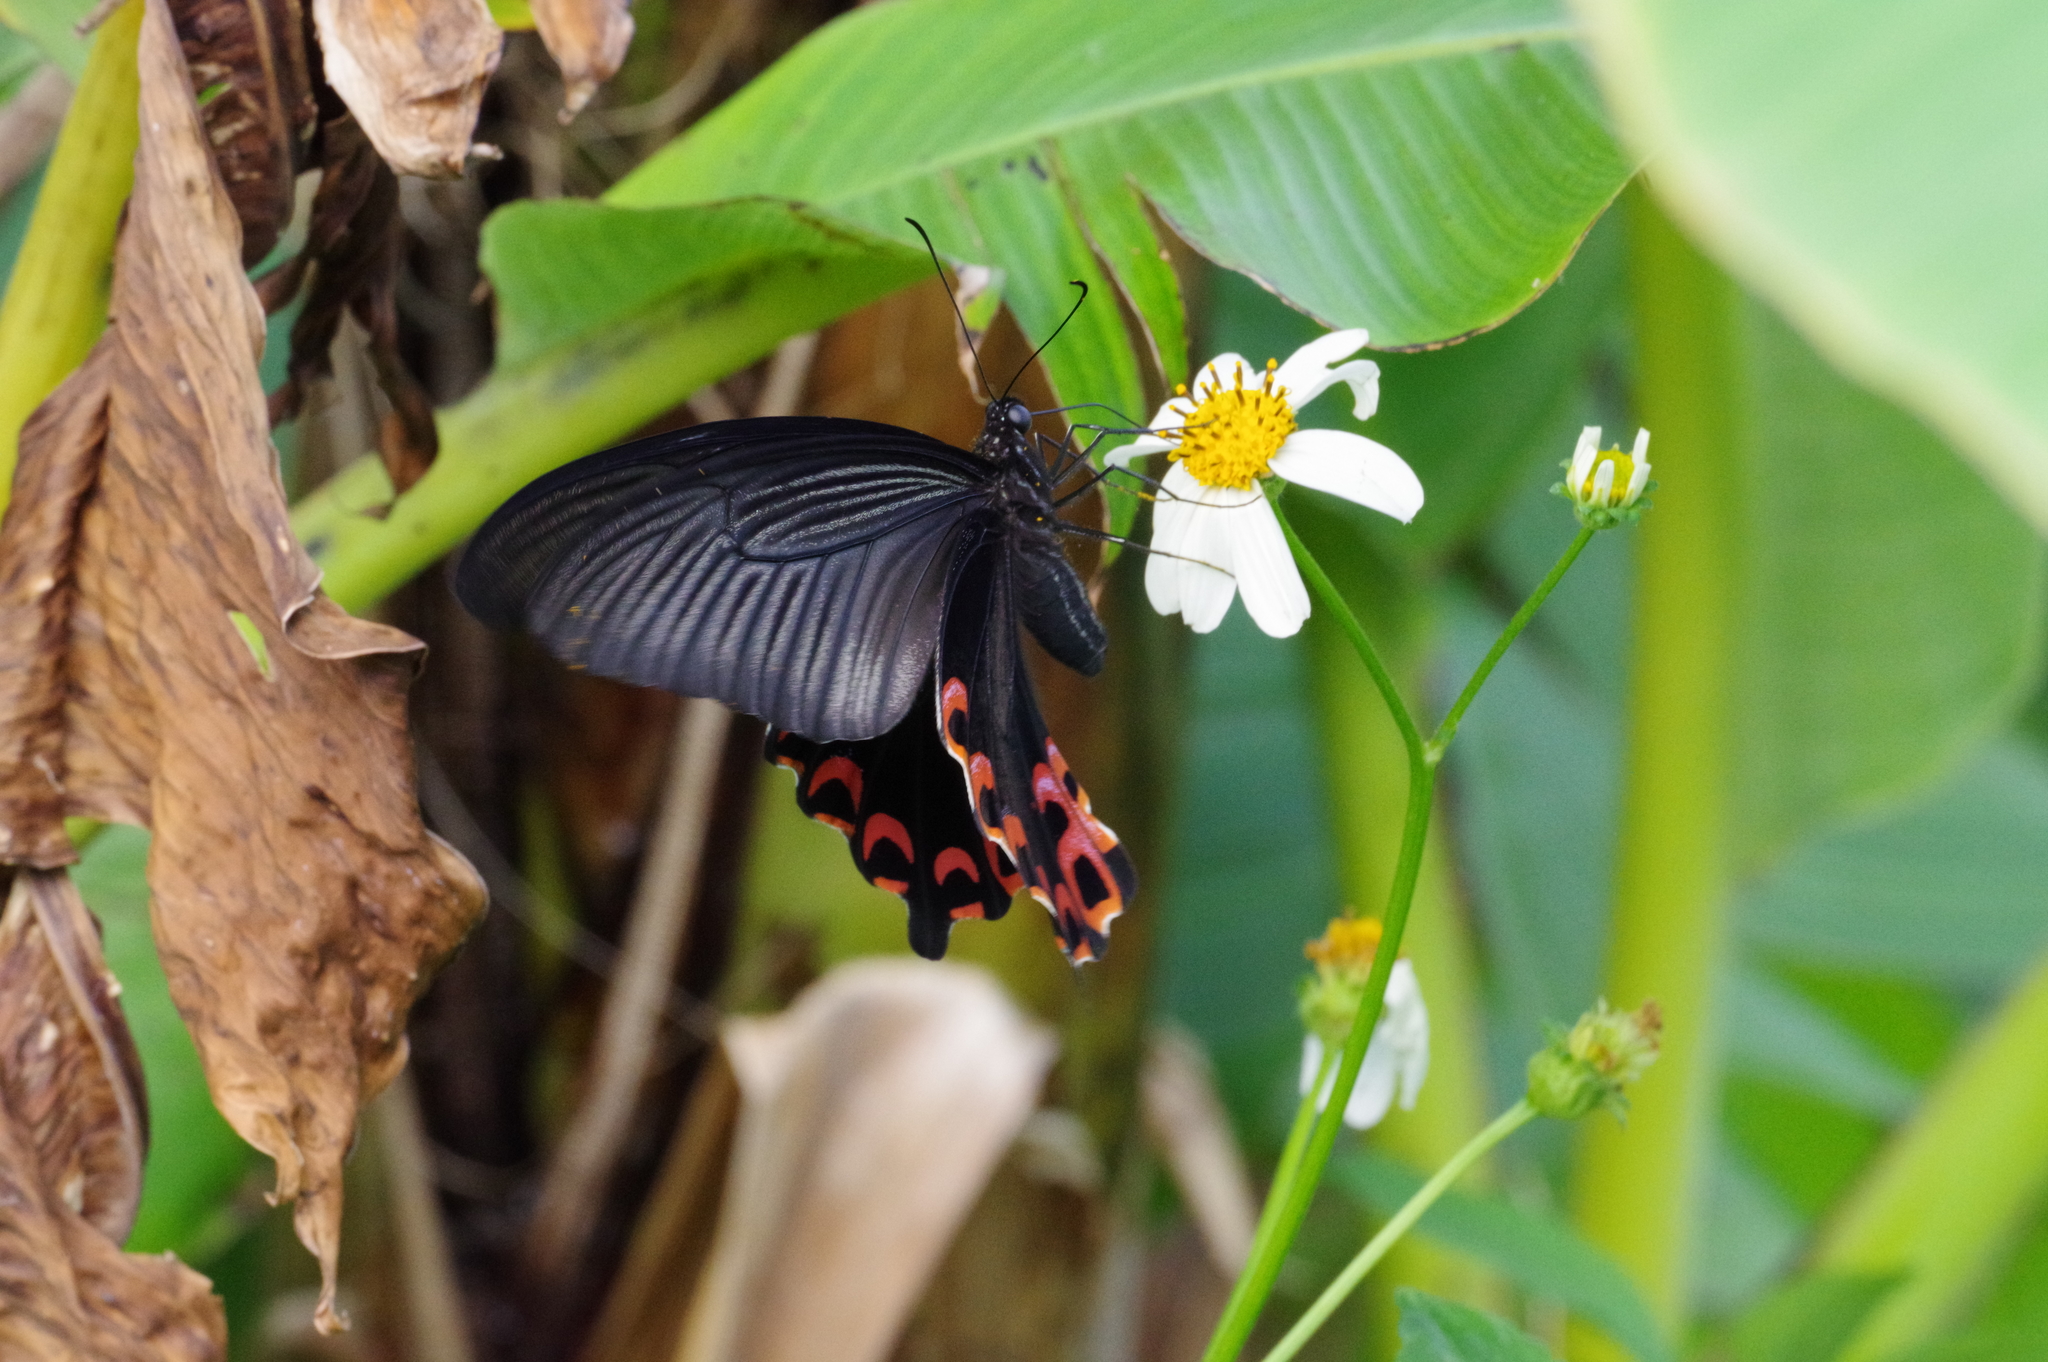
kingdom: Animalia
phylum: Arthropoda
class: Insecta
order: Lepidoptera
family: Papilionidae
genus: Papilio
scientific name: Papilio demetrius
